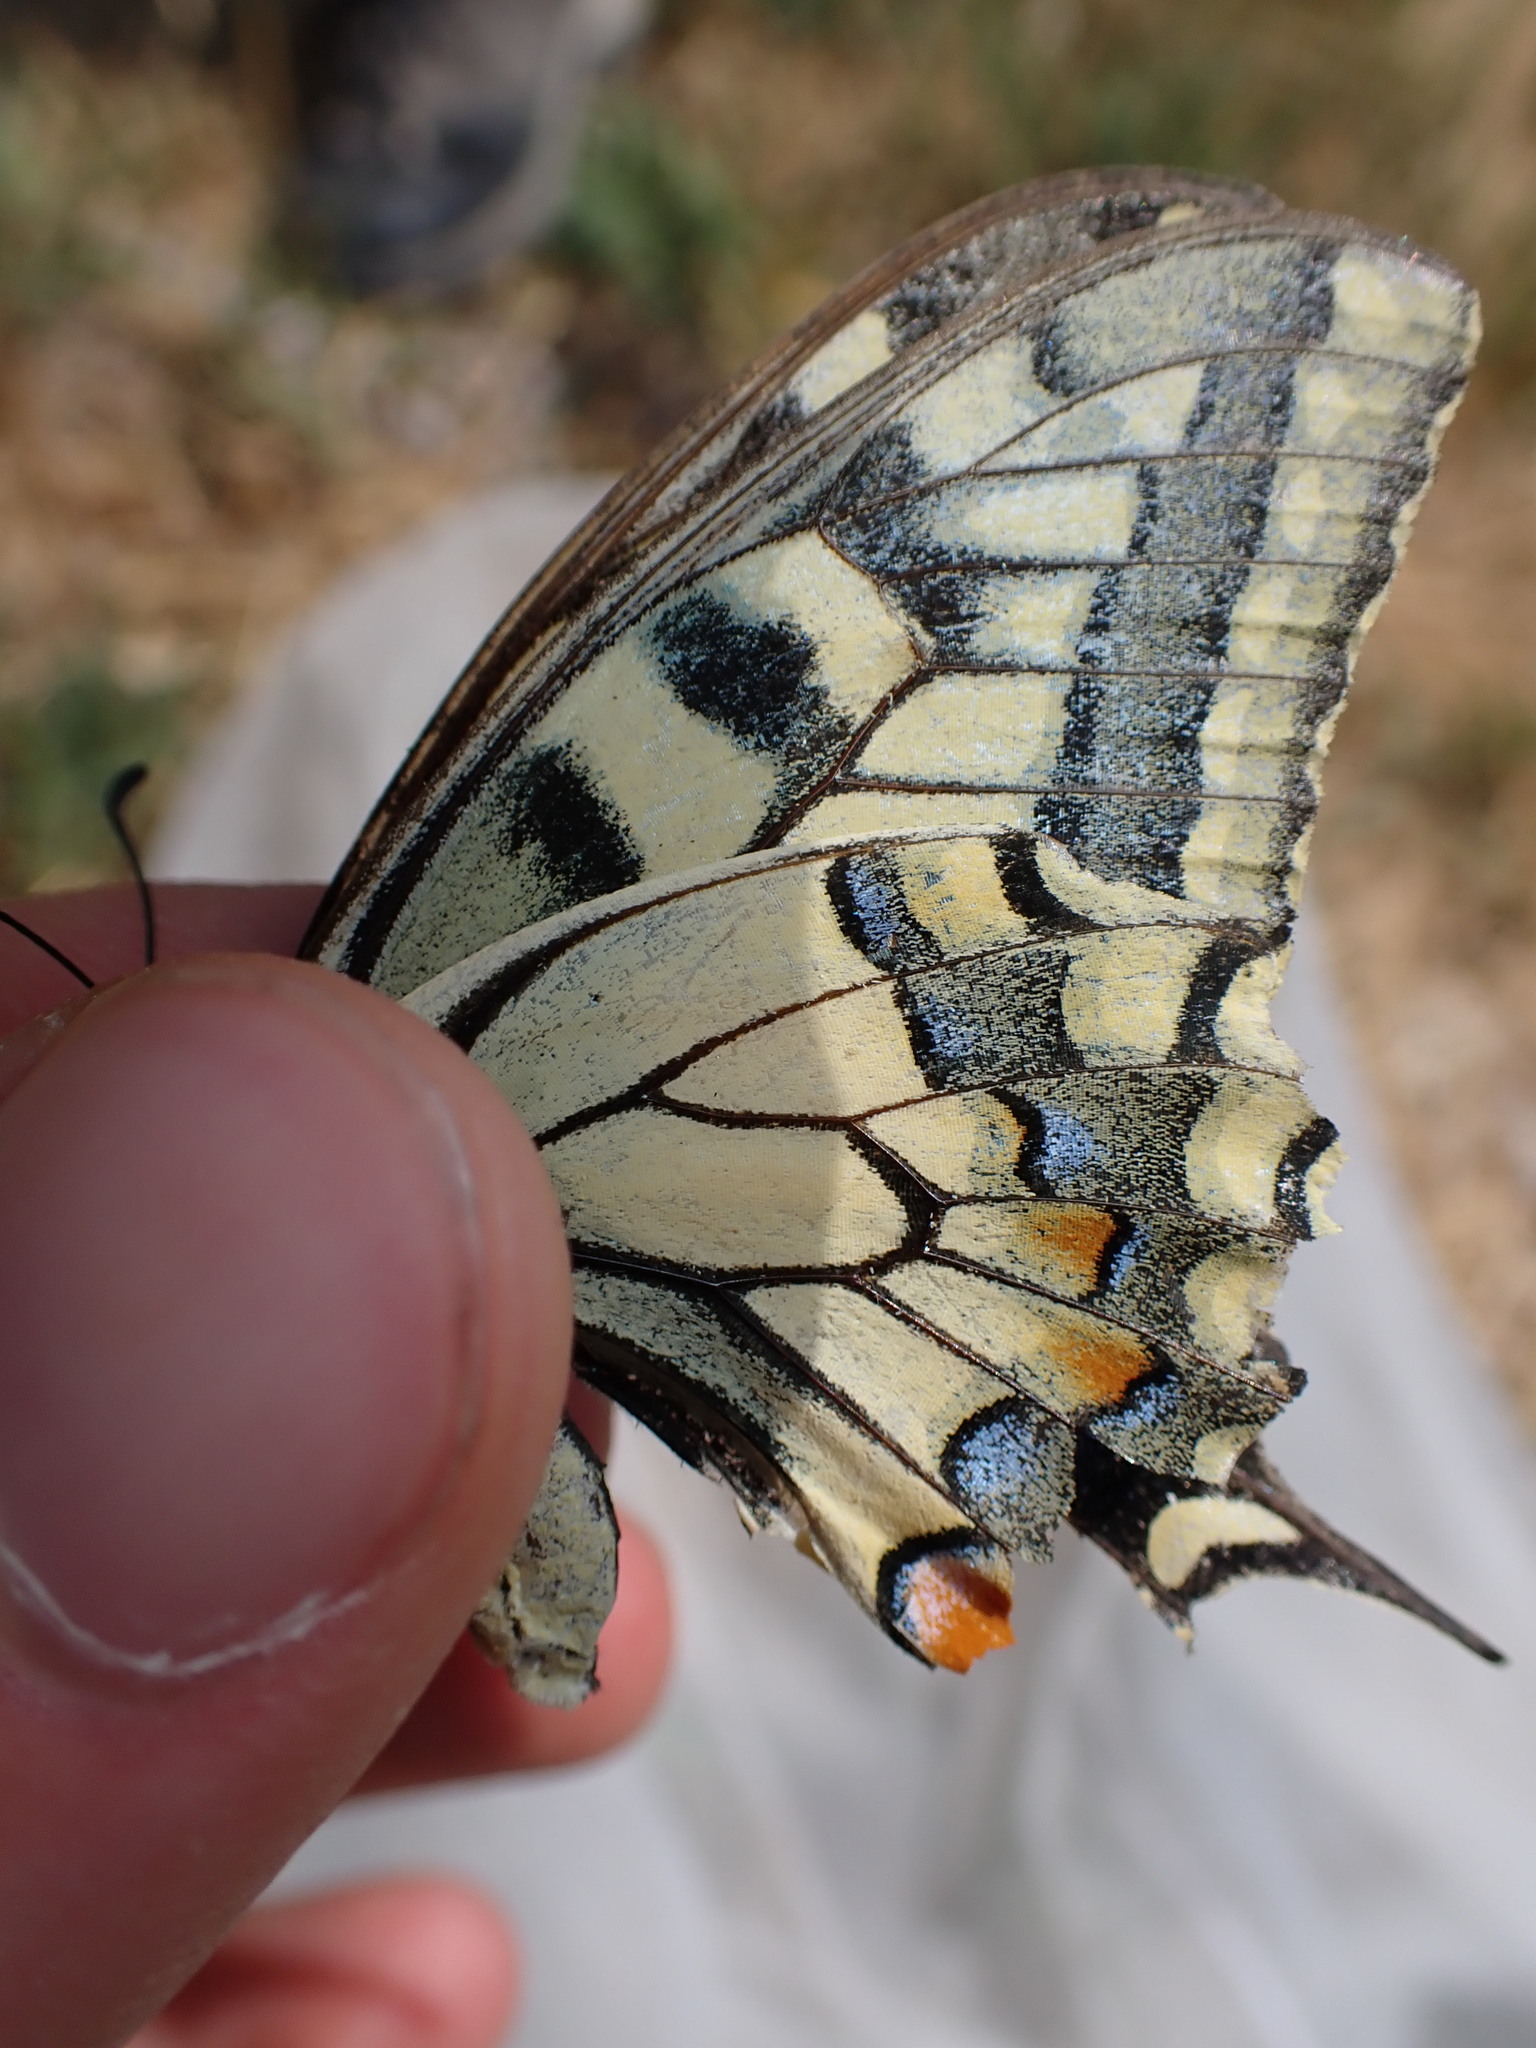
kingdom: Animalia
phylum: Arthropoda
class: Insecta
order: Lepidoptera
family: Papilionidae
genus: Papilio
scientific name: Papilio machaon
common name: Swallowtail
